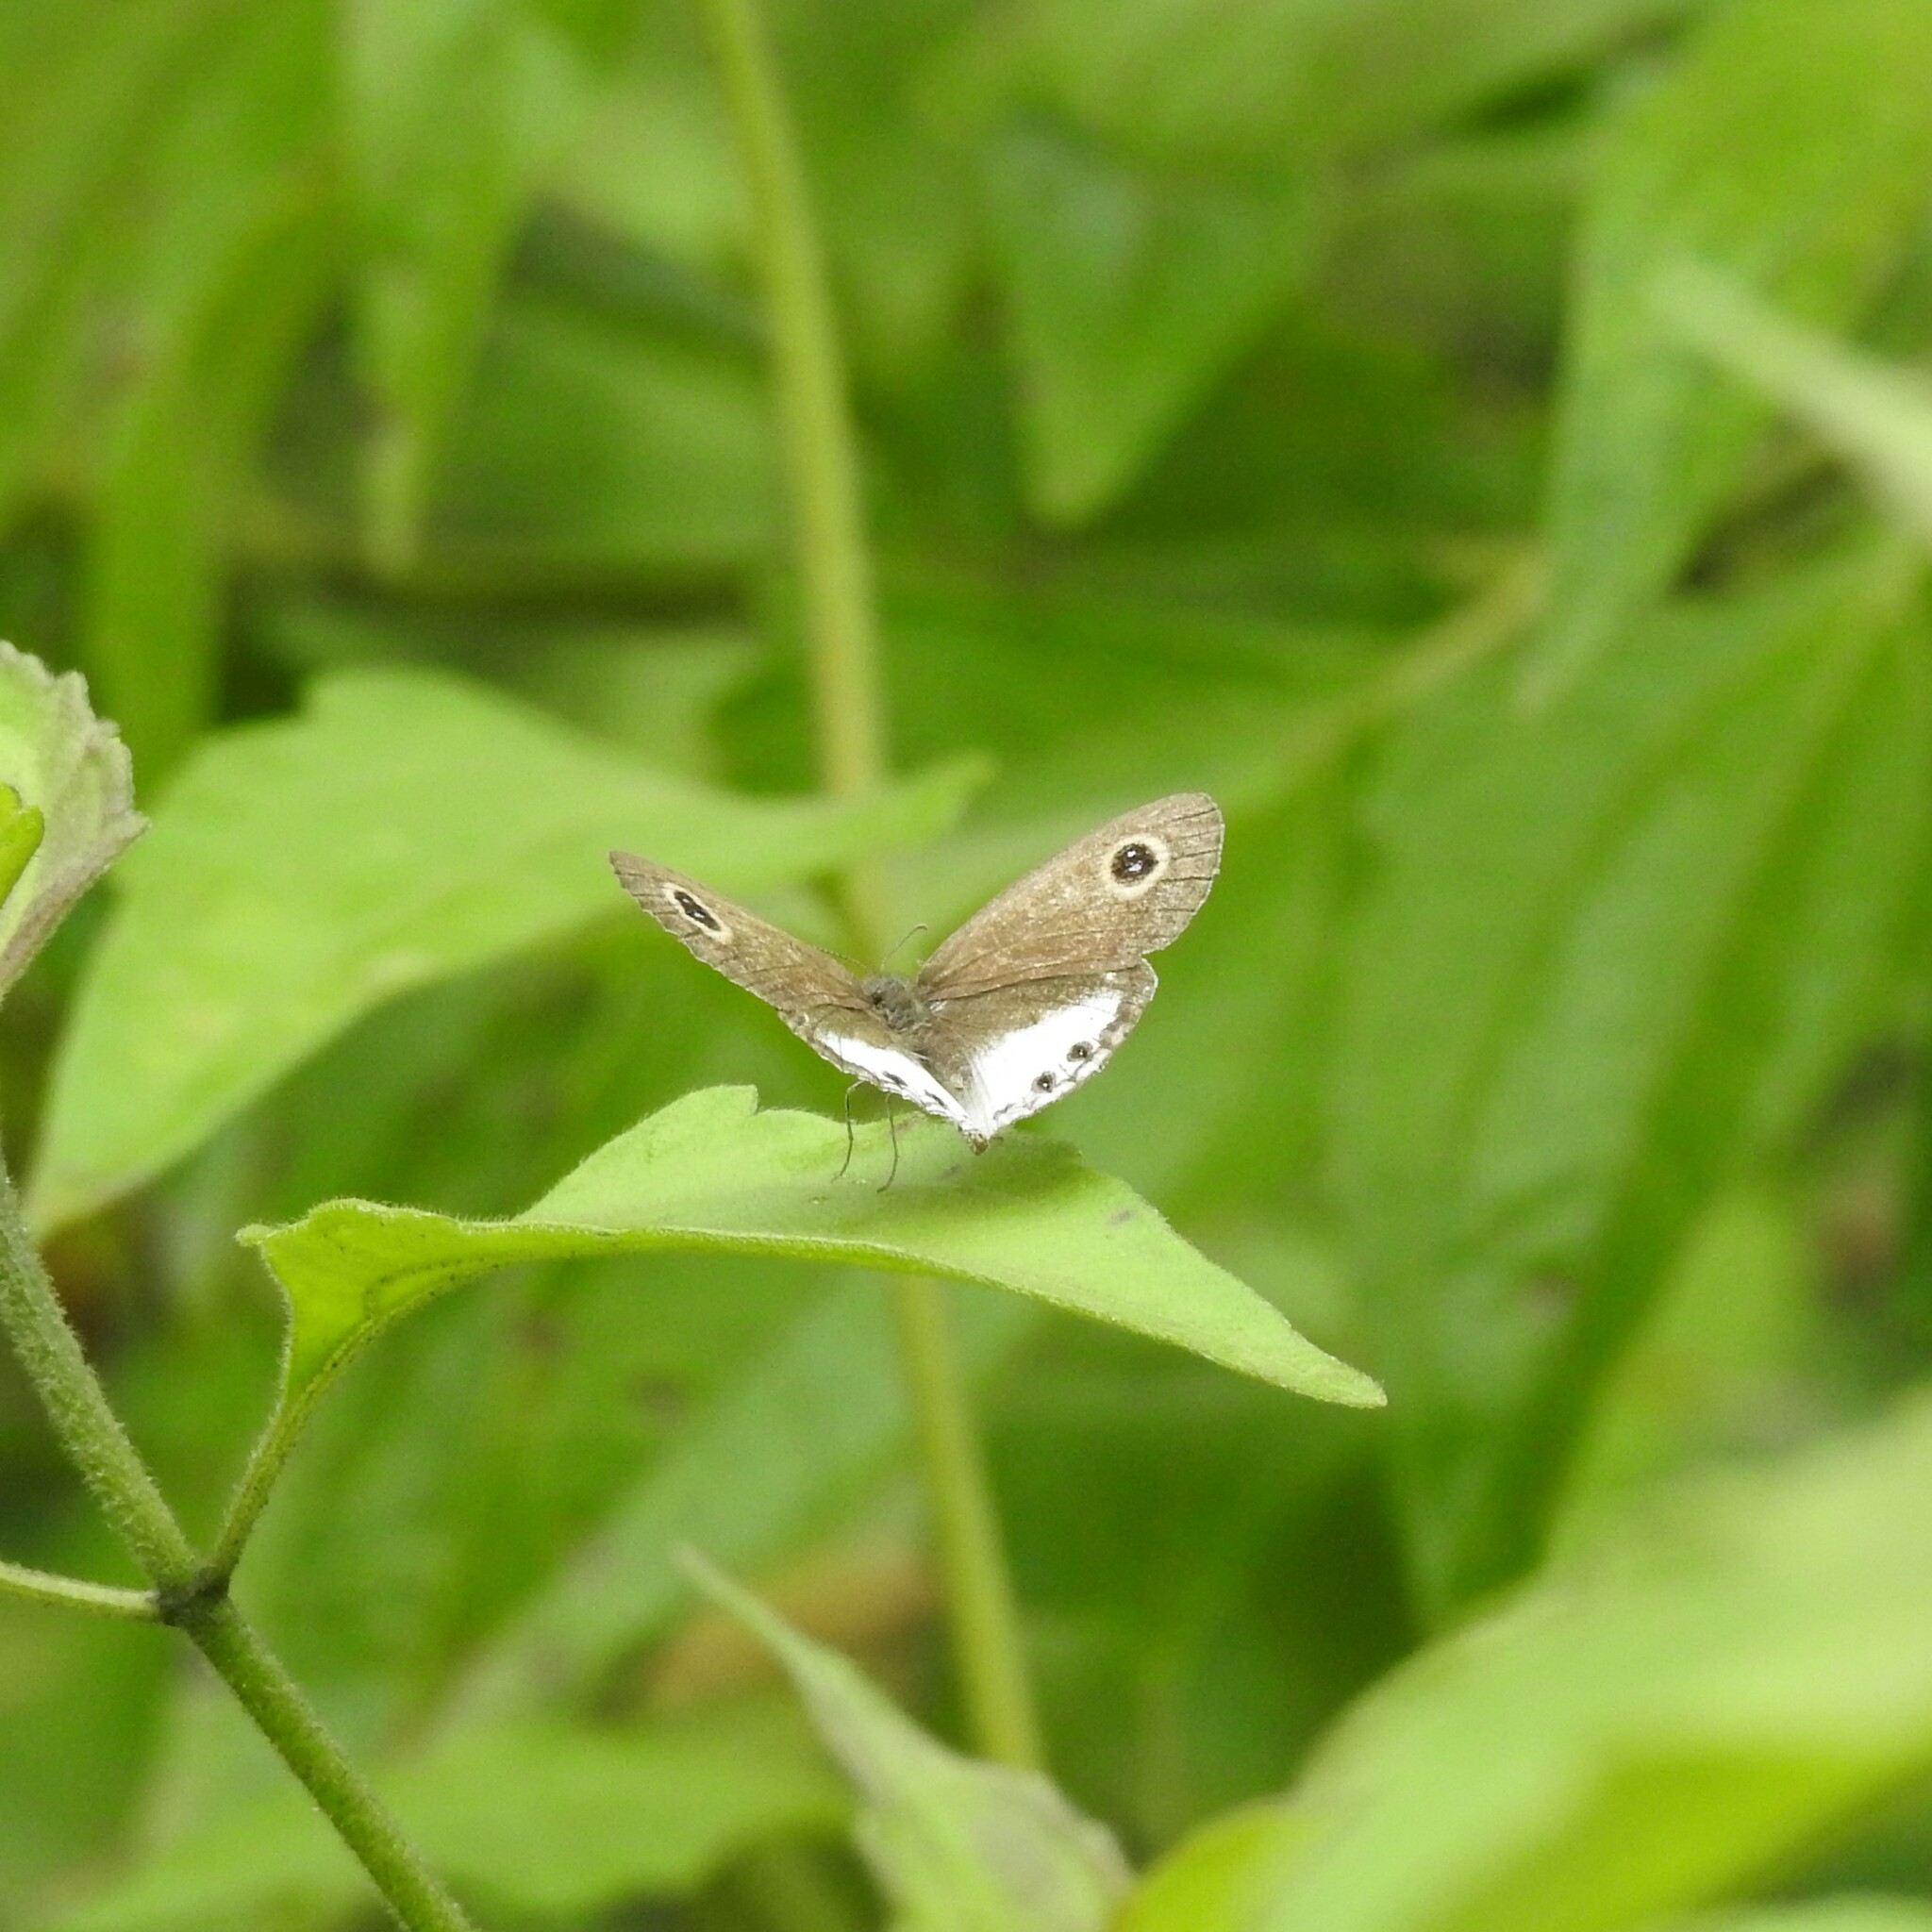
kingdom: Animalia
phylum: Arthropoda
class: Insecta
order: Lepidoptera
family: Nymphalidae
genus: Ypthima
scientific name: Ypthima ceylonica
